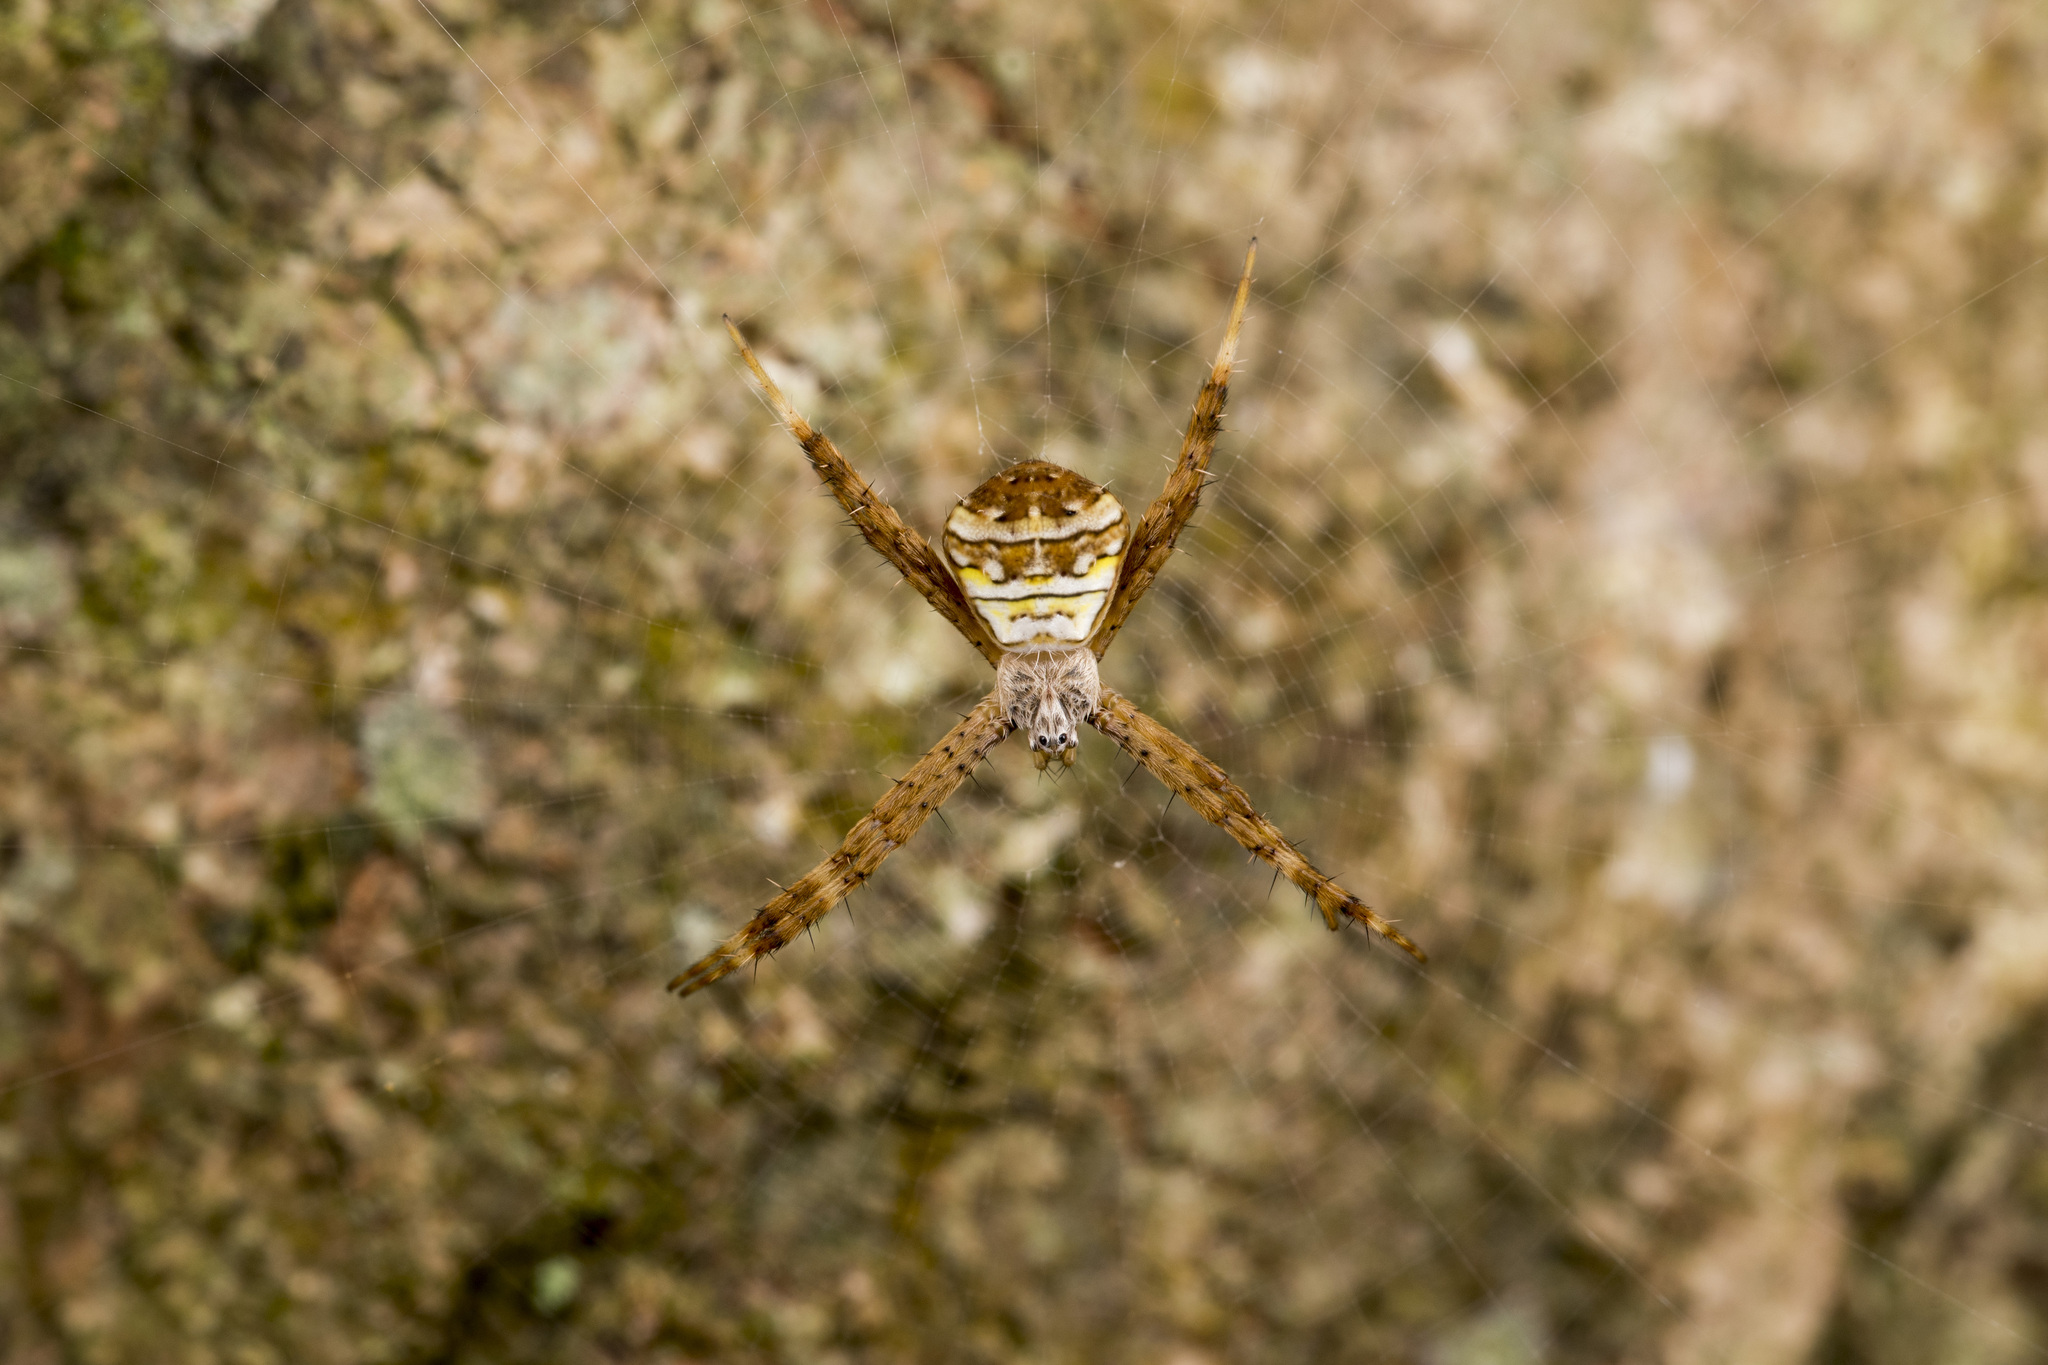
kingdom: Animalia
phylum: Arthropoda
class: Arachnida
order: Araneae
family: Araneidae
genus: Argiope
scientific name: Argiope aetheroides
